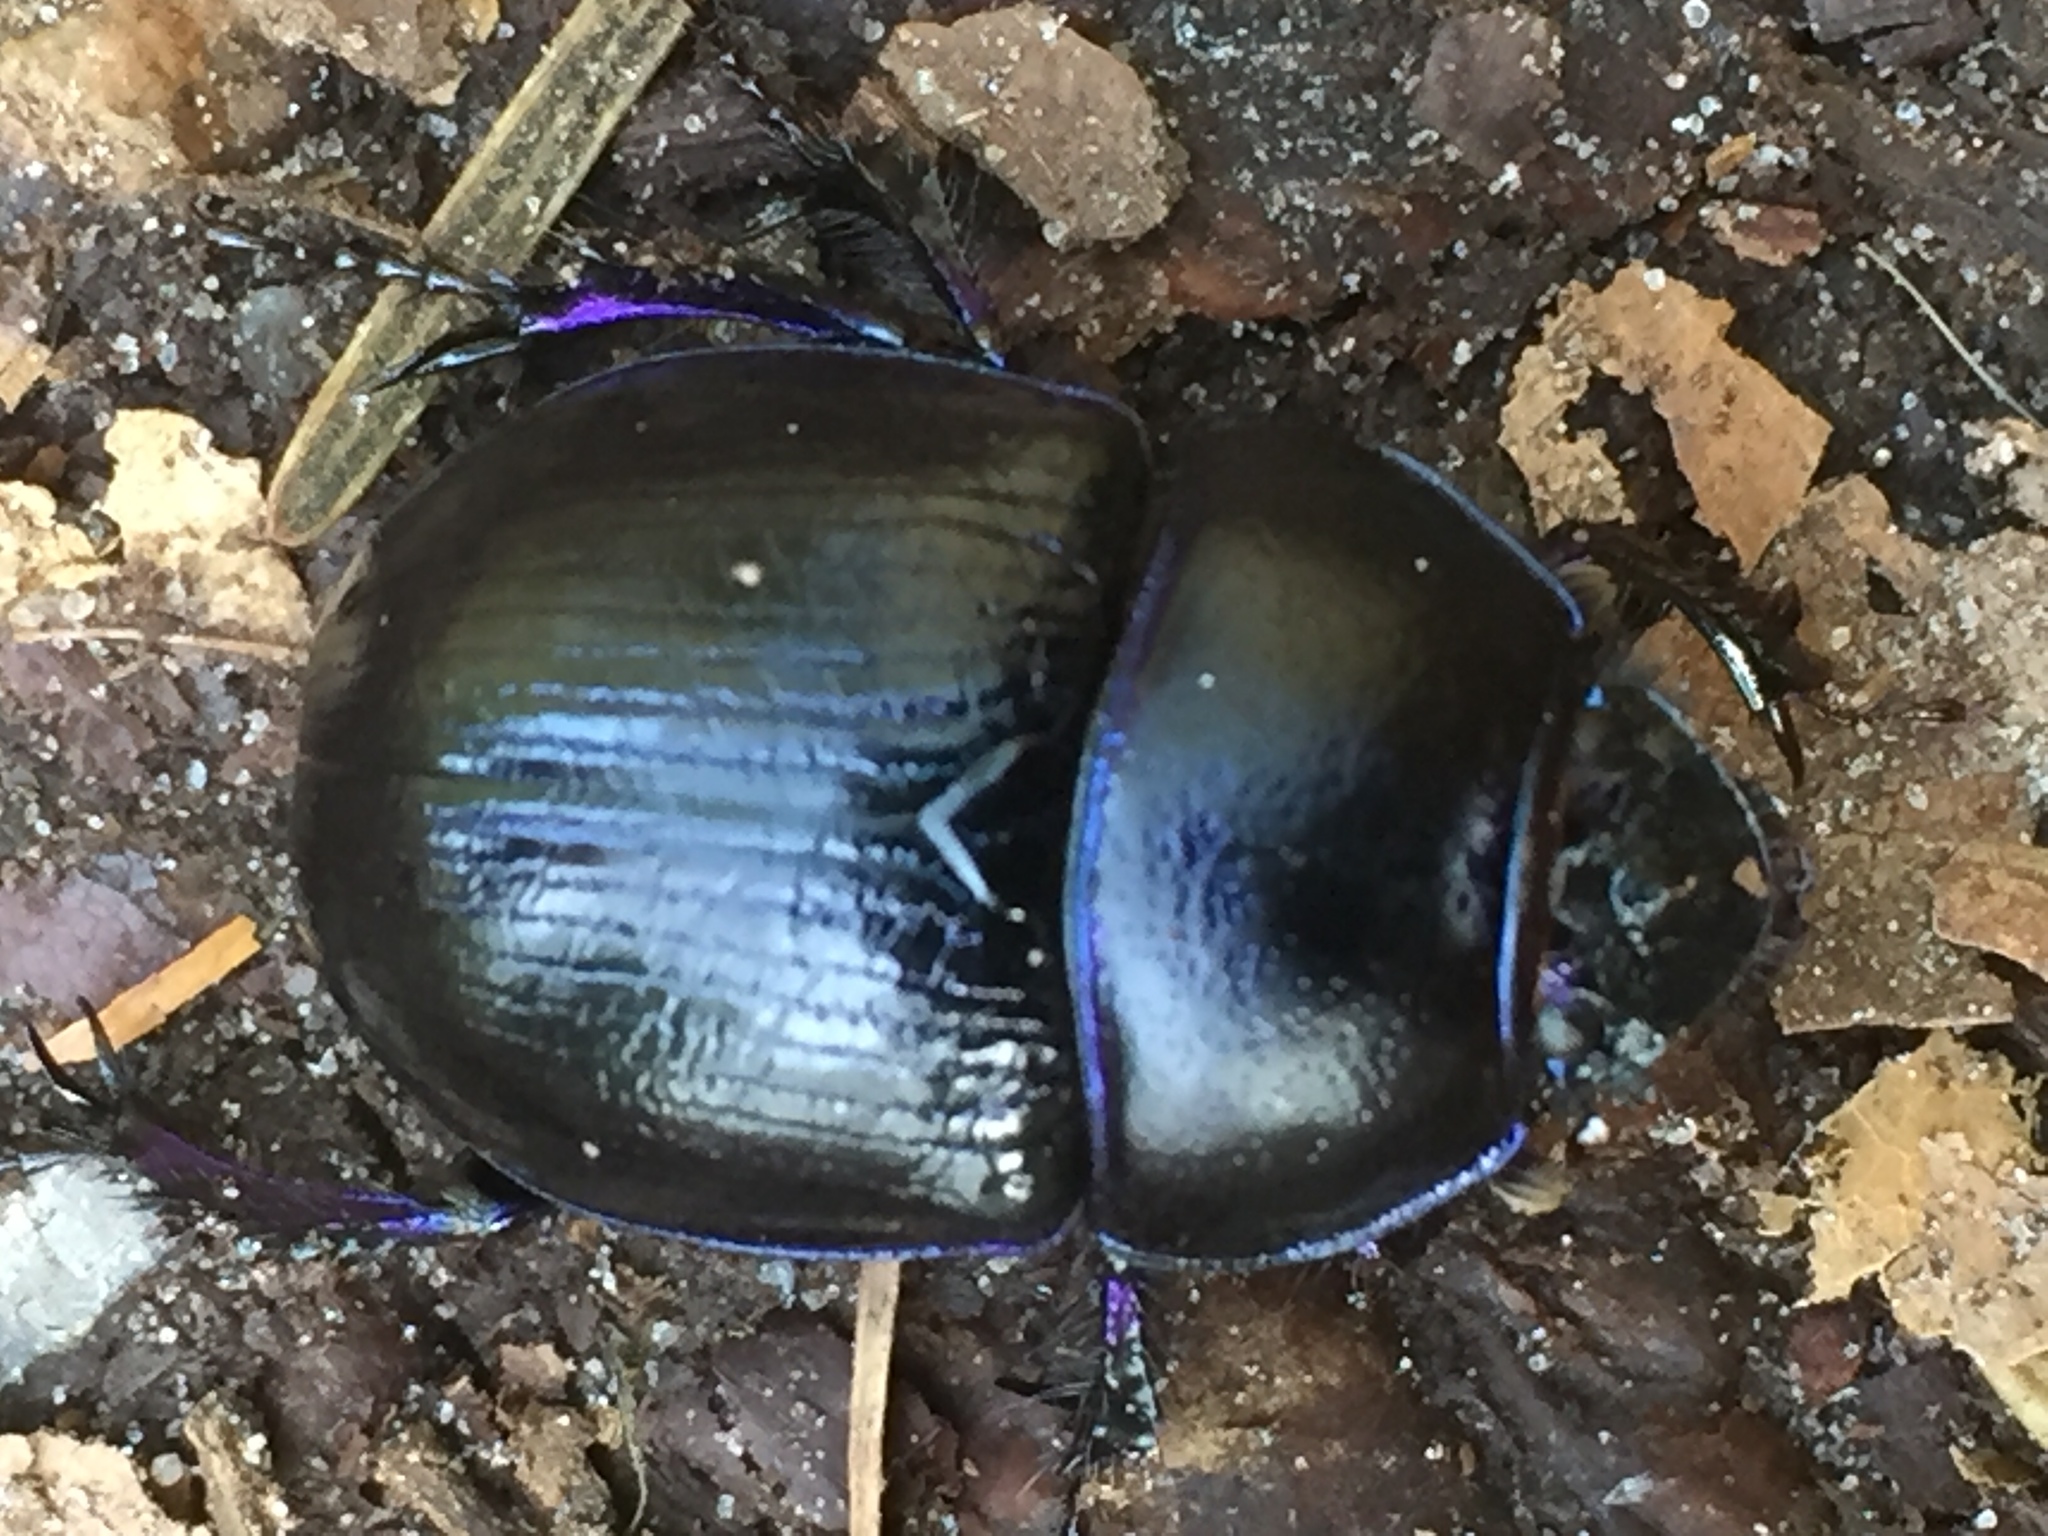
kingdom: Animalia
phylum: Arthropoda
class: Insecta
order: Coleoptera
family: Geotrupidae
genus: Anoplotrupes
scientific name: Anoplotrupes stercorosus
